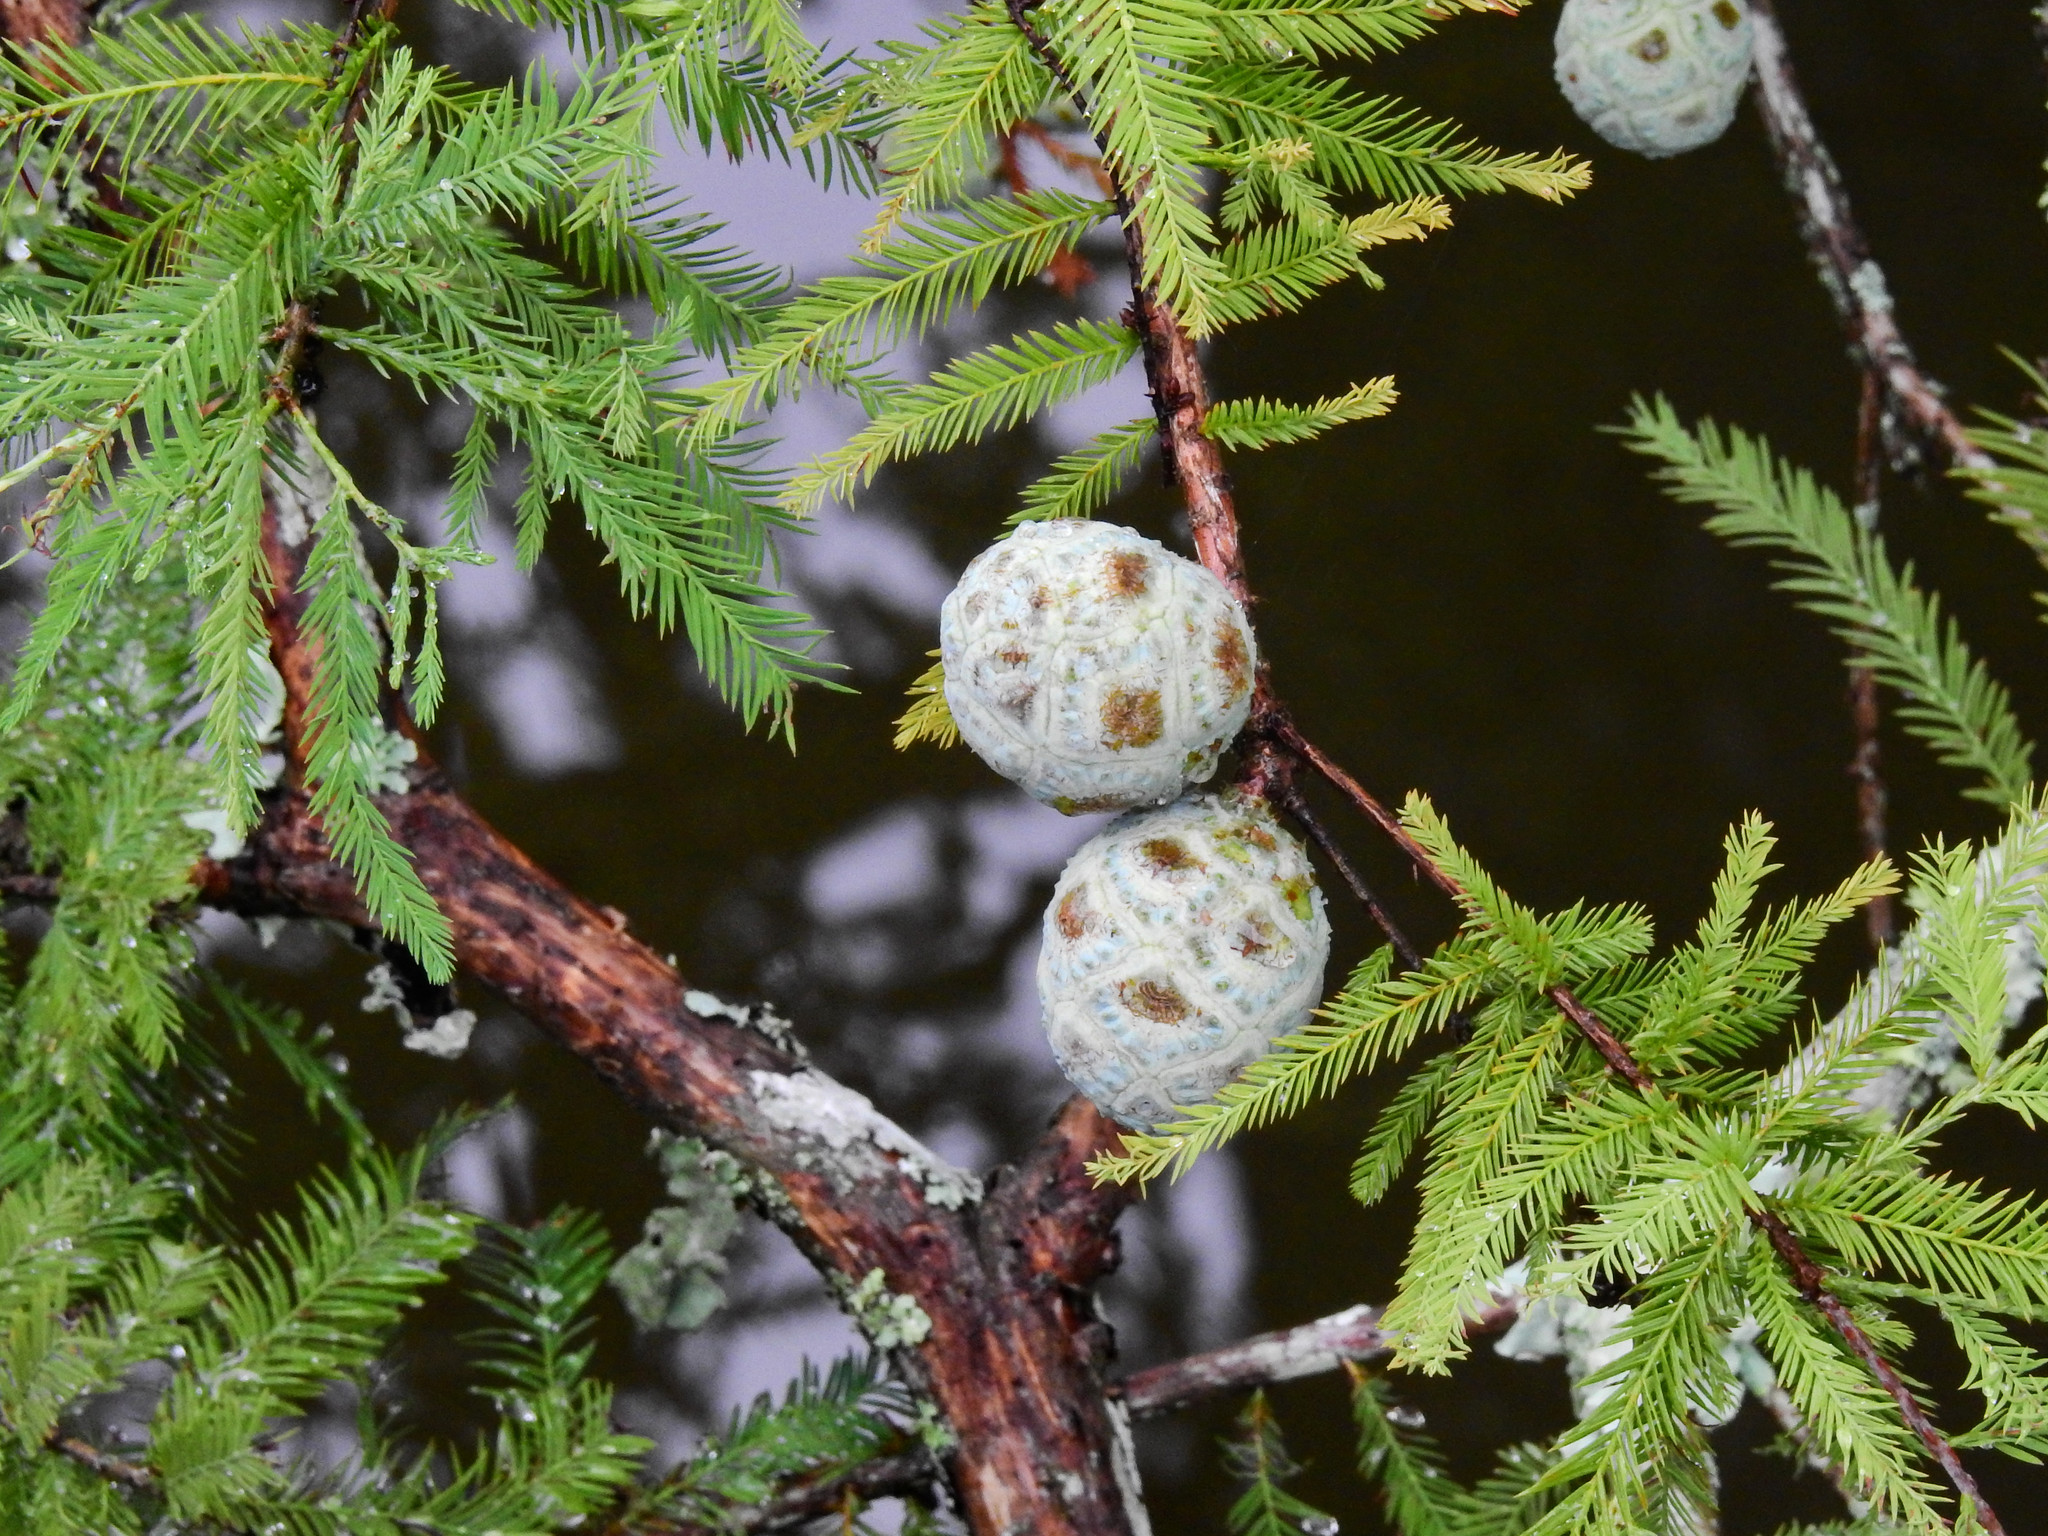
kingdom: Plantae
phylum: Tracheophyta
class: Pinopsida
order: Pinales
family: Cupressaceae
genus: Taxodium
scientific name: Taxodium distichum
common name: Bald cypress
